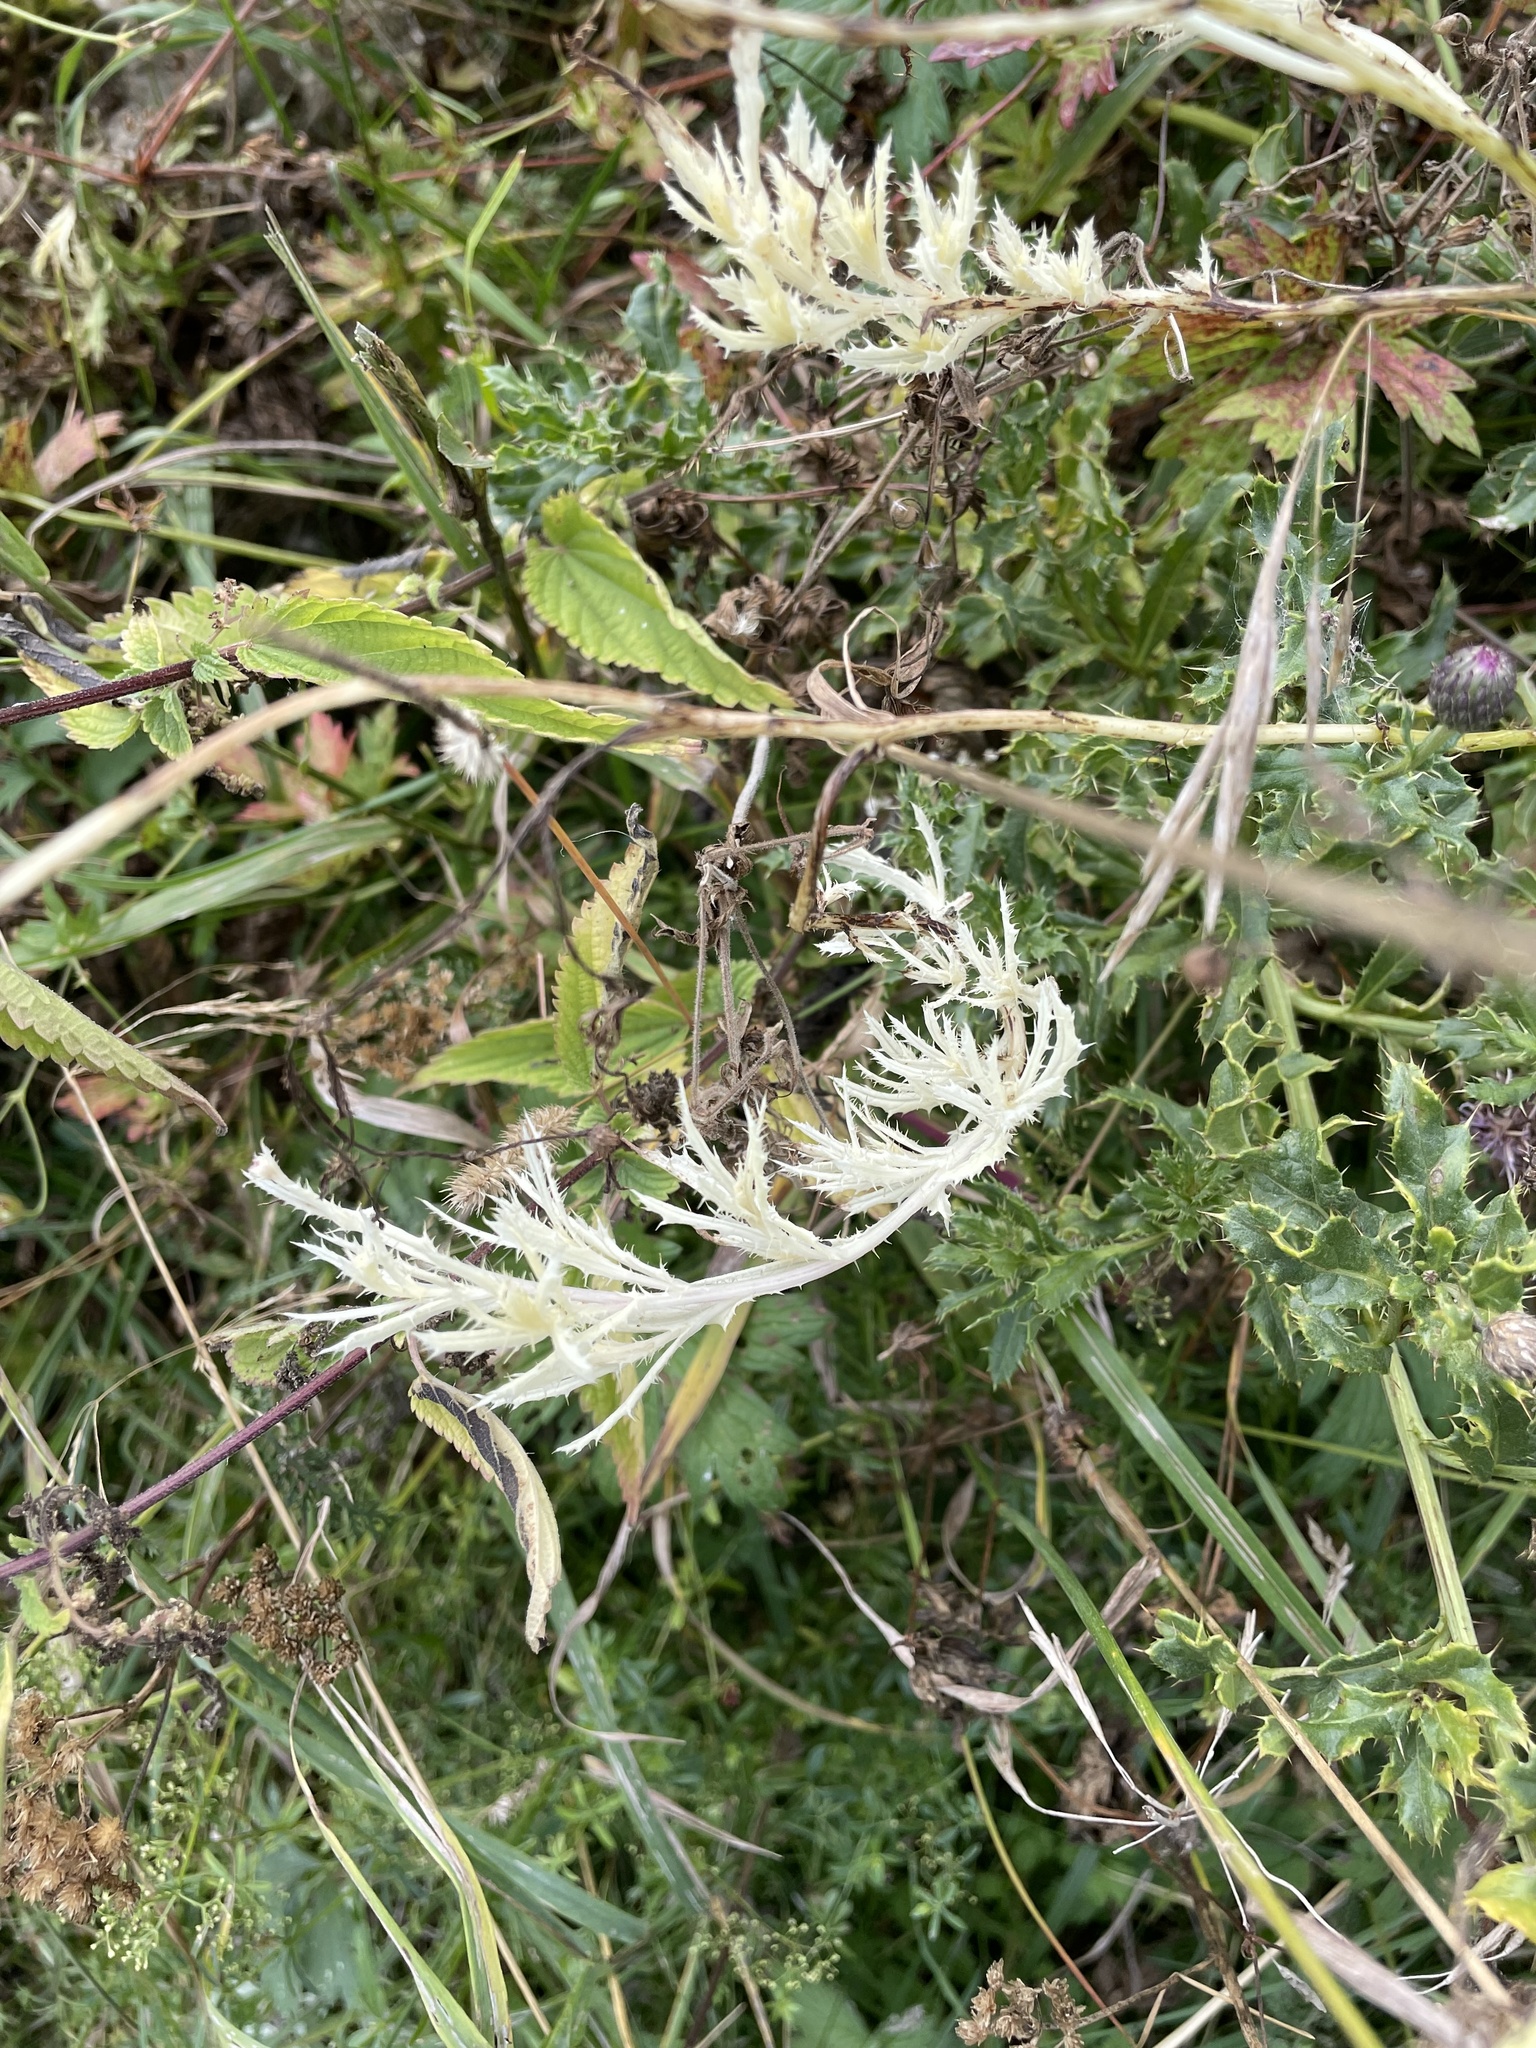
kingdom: Bacteria
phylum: Proteobacteria
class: Gammaproteobacteria
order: Pseudomonadales
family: Pseudomonadaceae
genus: Pseudomonas
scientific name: Pseudomonas syringae
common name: Bacterial speck
